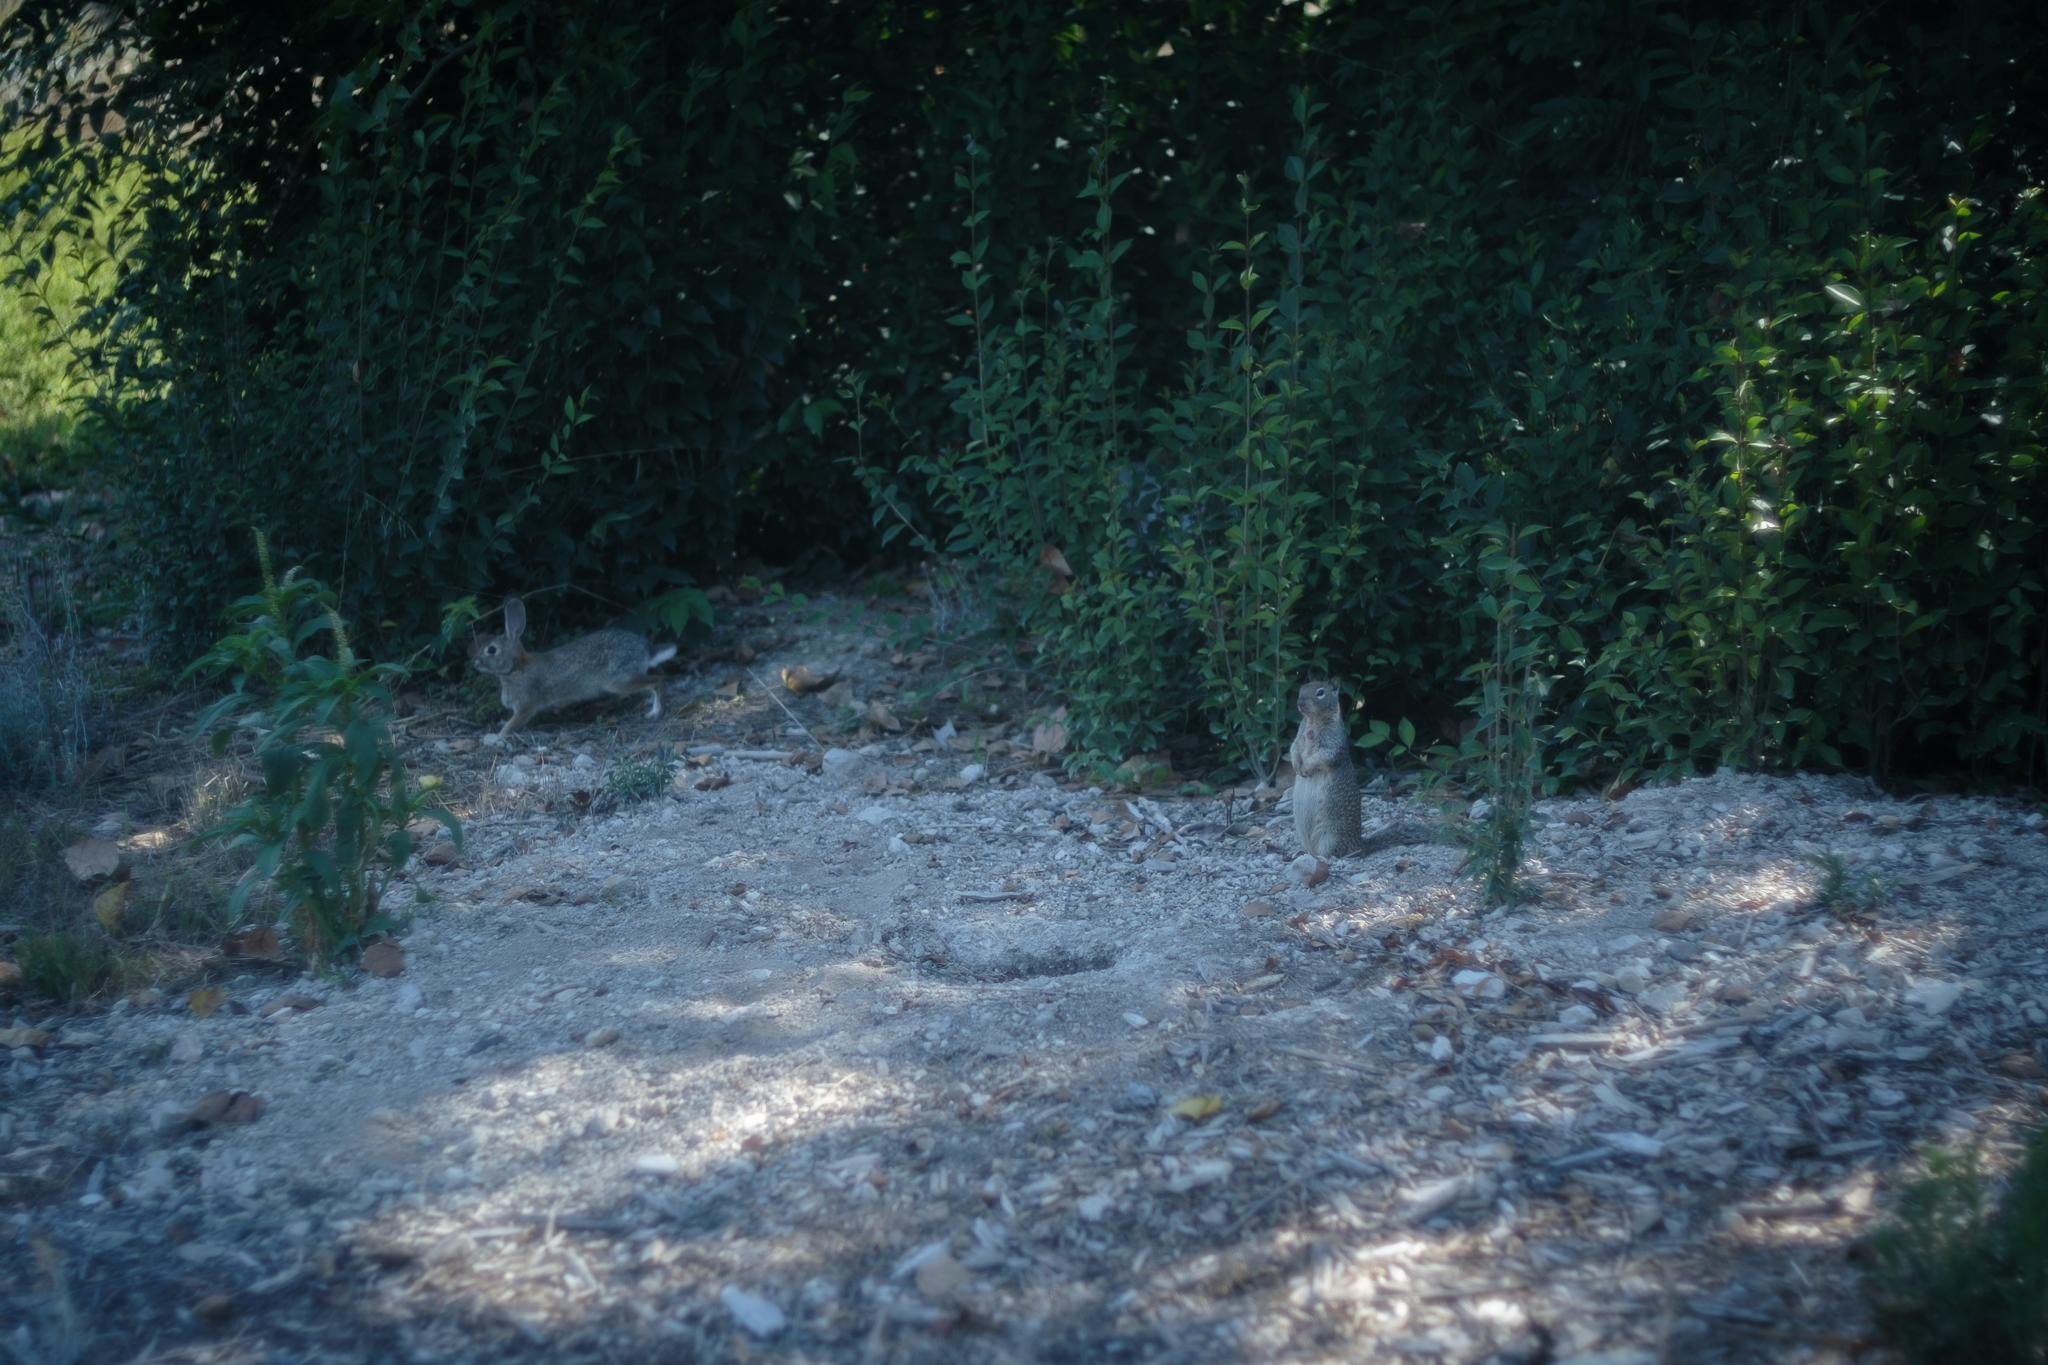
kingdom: Animalia
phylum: Chordata
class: Mammalia
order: Rodentia
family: Sciuridae
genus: Otospermophilus
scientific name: Otospermophilus beecheyi
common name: California ground squirrel
